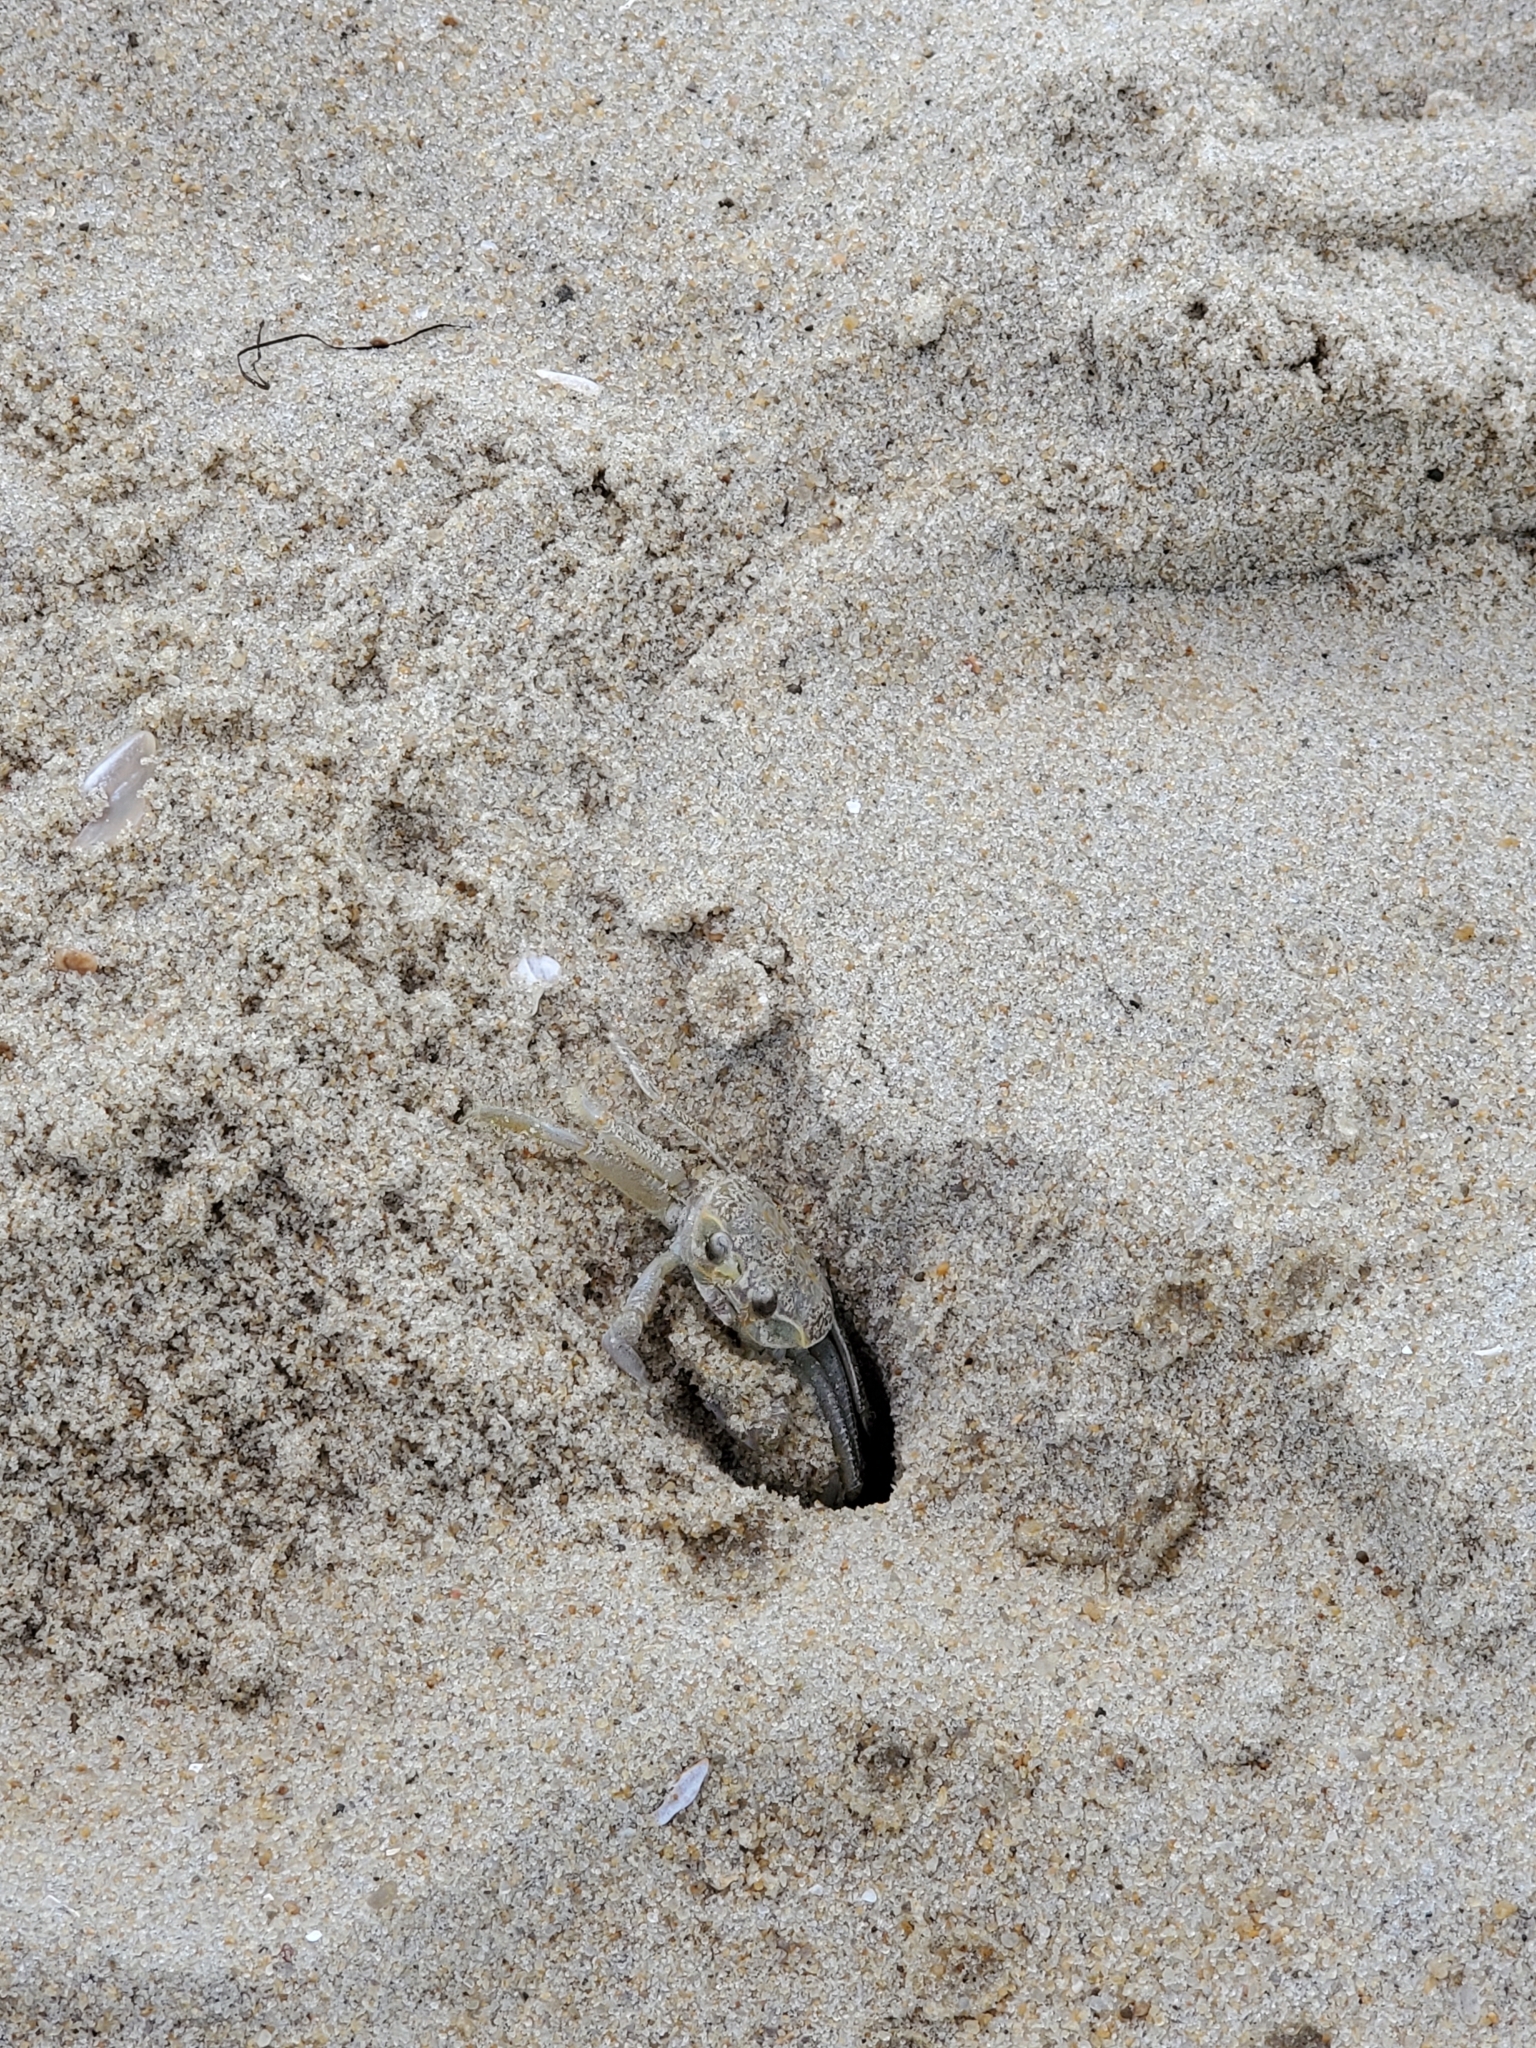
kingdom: Animalia
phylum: Arthropoda
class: Malacostraca
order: Decapoda
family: Ocypodidae
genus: Ocypode
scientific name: Ocypode quadrata
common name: Ghost crab
